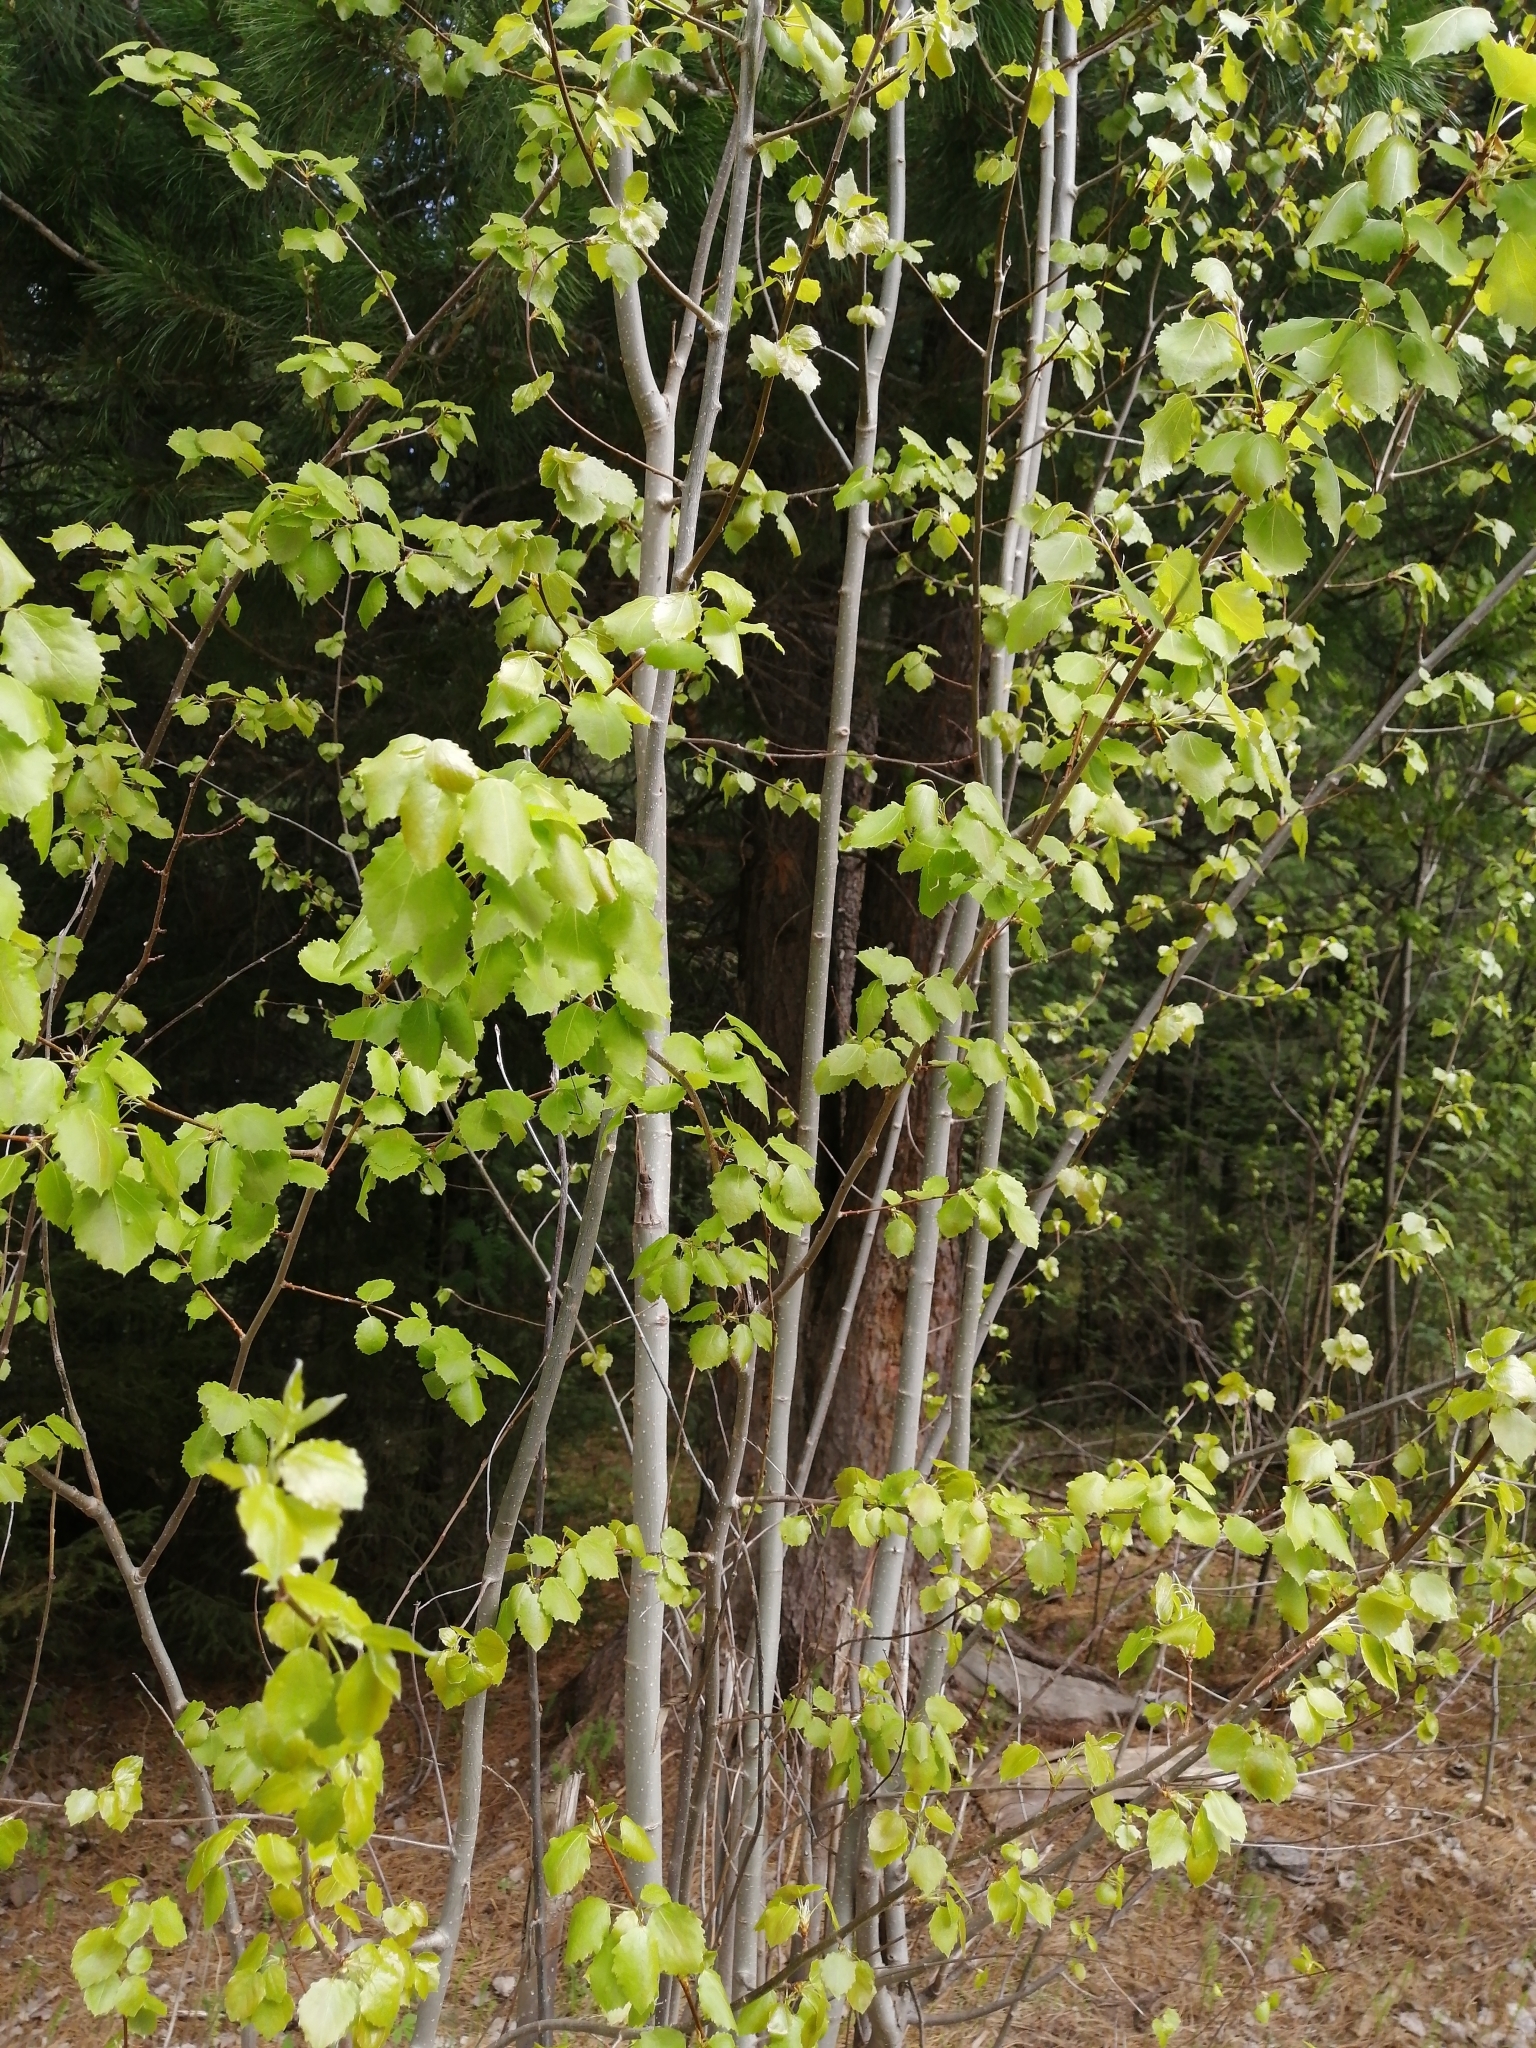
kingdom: Plantae
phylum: Tracheophyta
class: Magnoliopsida
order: Malpighiales
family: Salicaceae
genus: Populus
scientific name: Populus tremula
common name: European aspen
